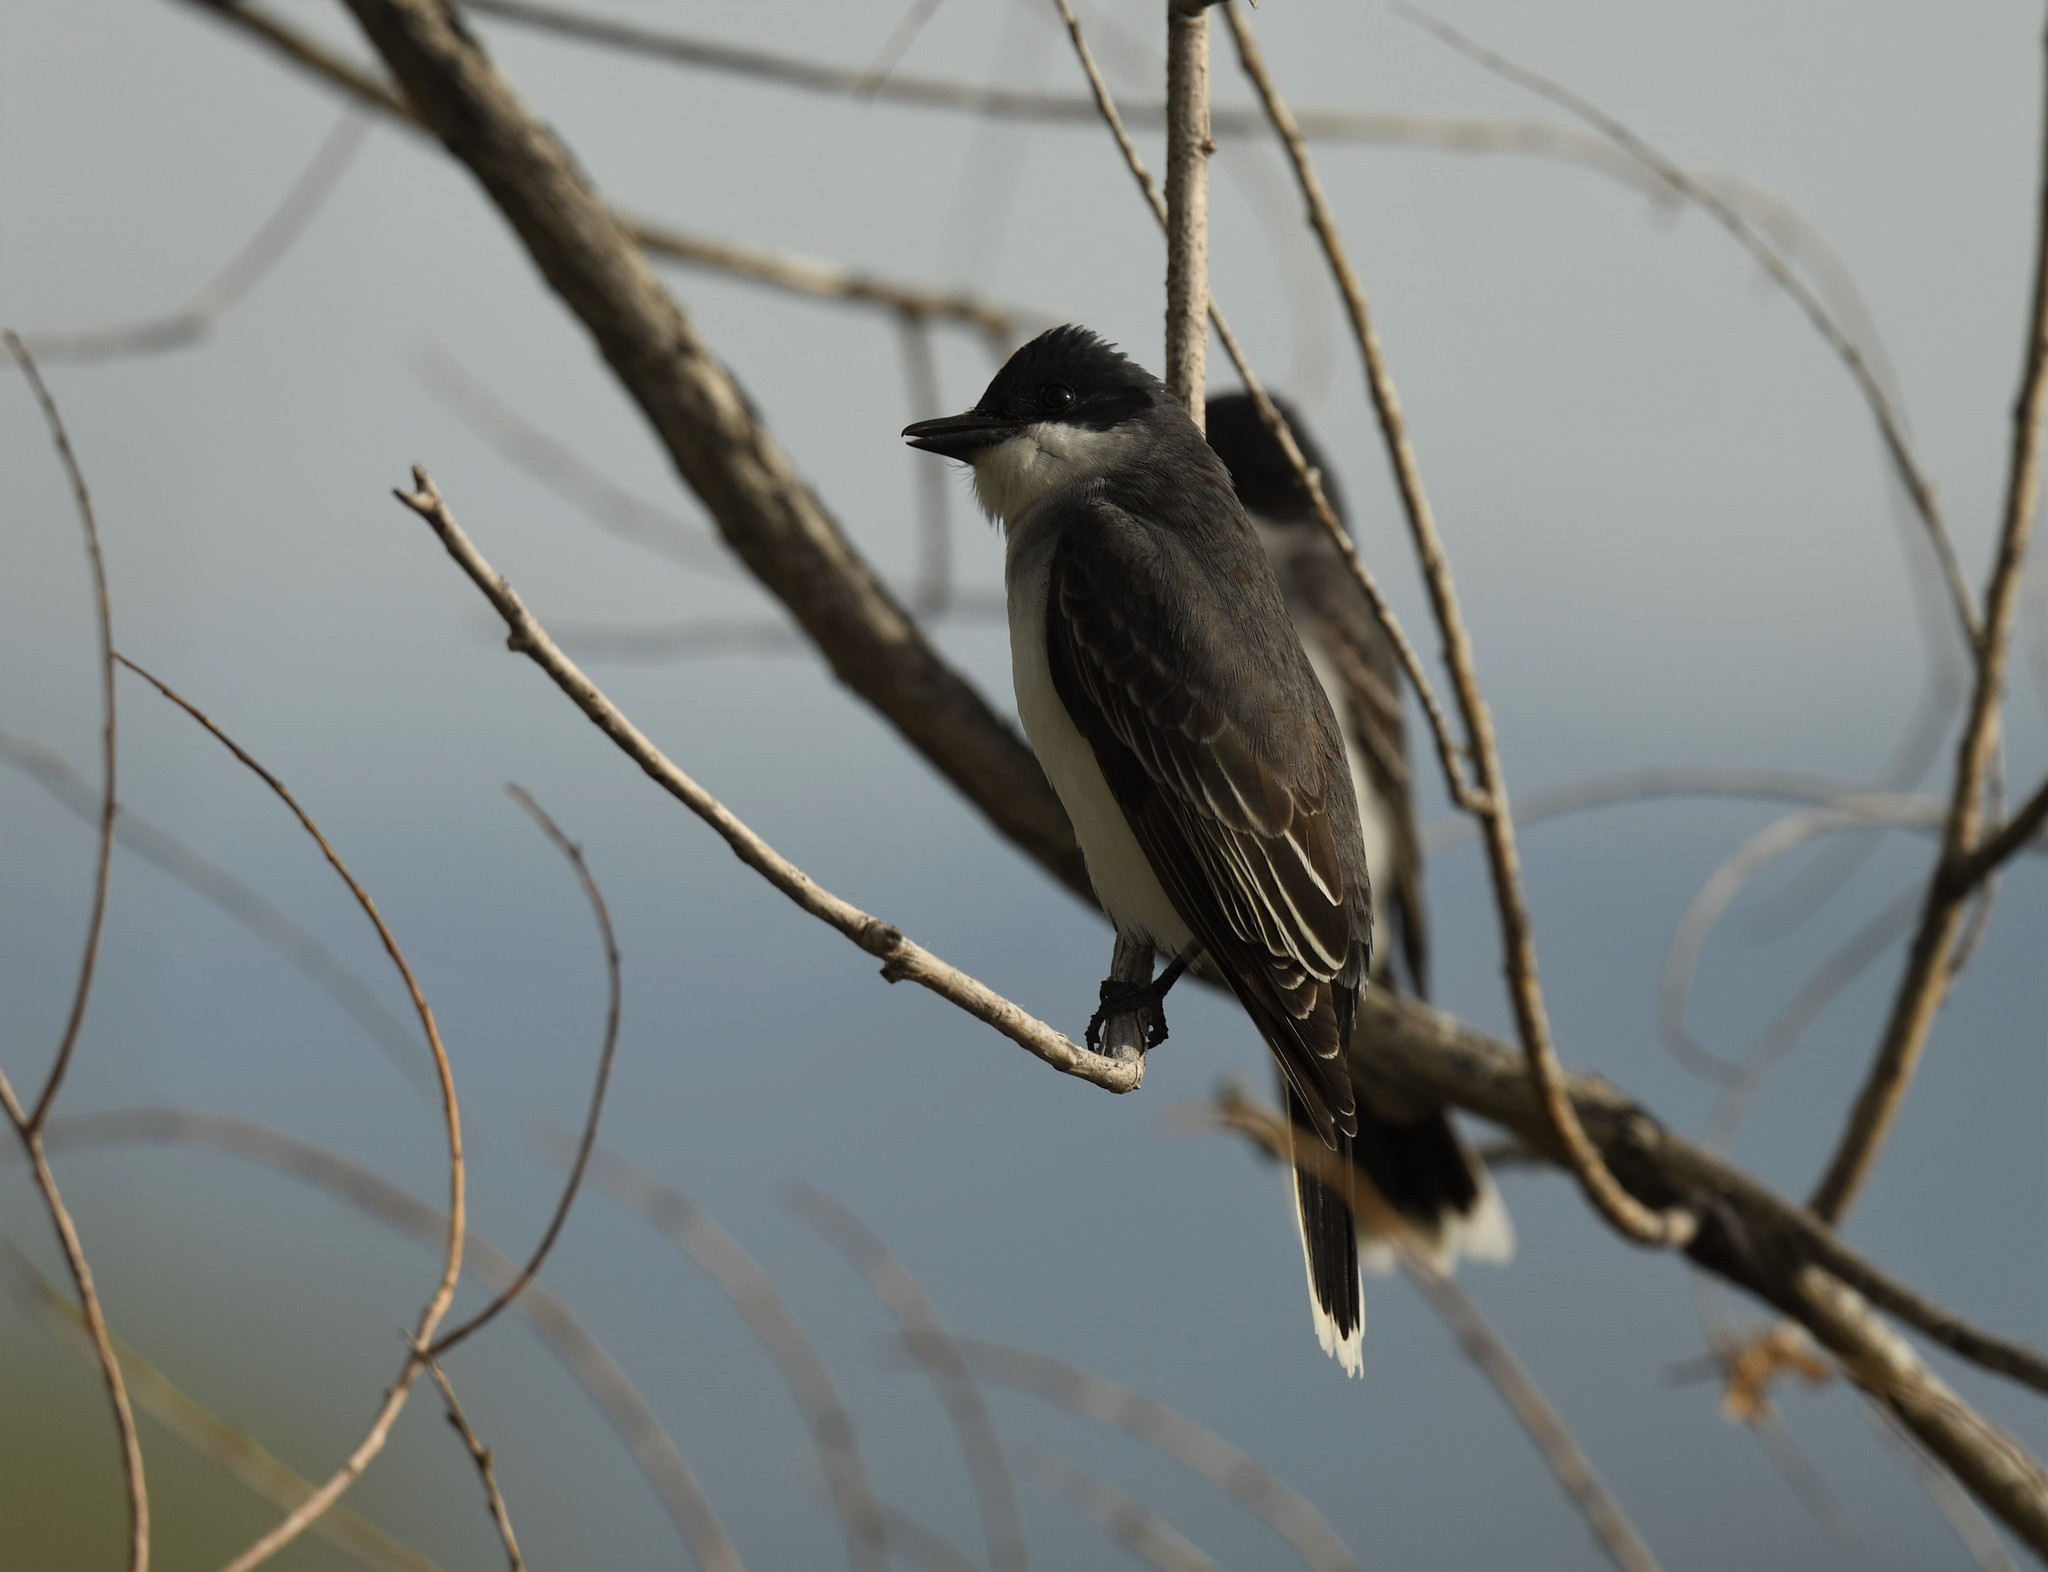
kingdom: Animalia
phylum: Chordata
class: Aves
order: Passeriformes
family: Tyrannidae
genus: Tyrannus
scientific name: Tyrannus tyrannus
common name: Eastern kingbird
